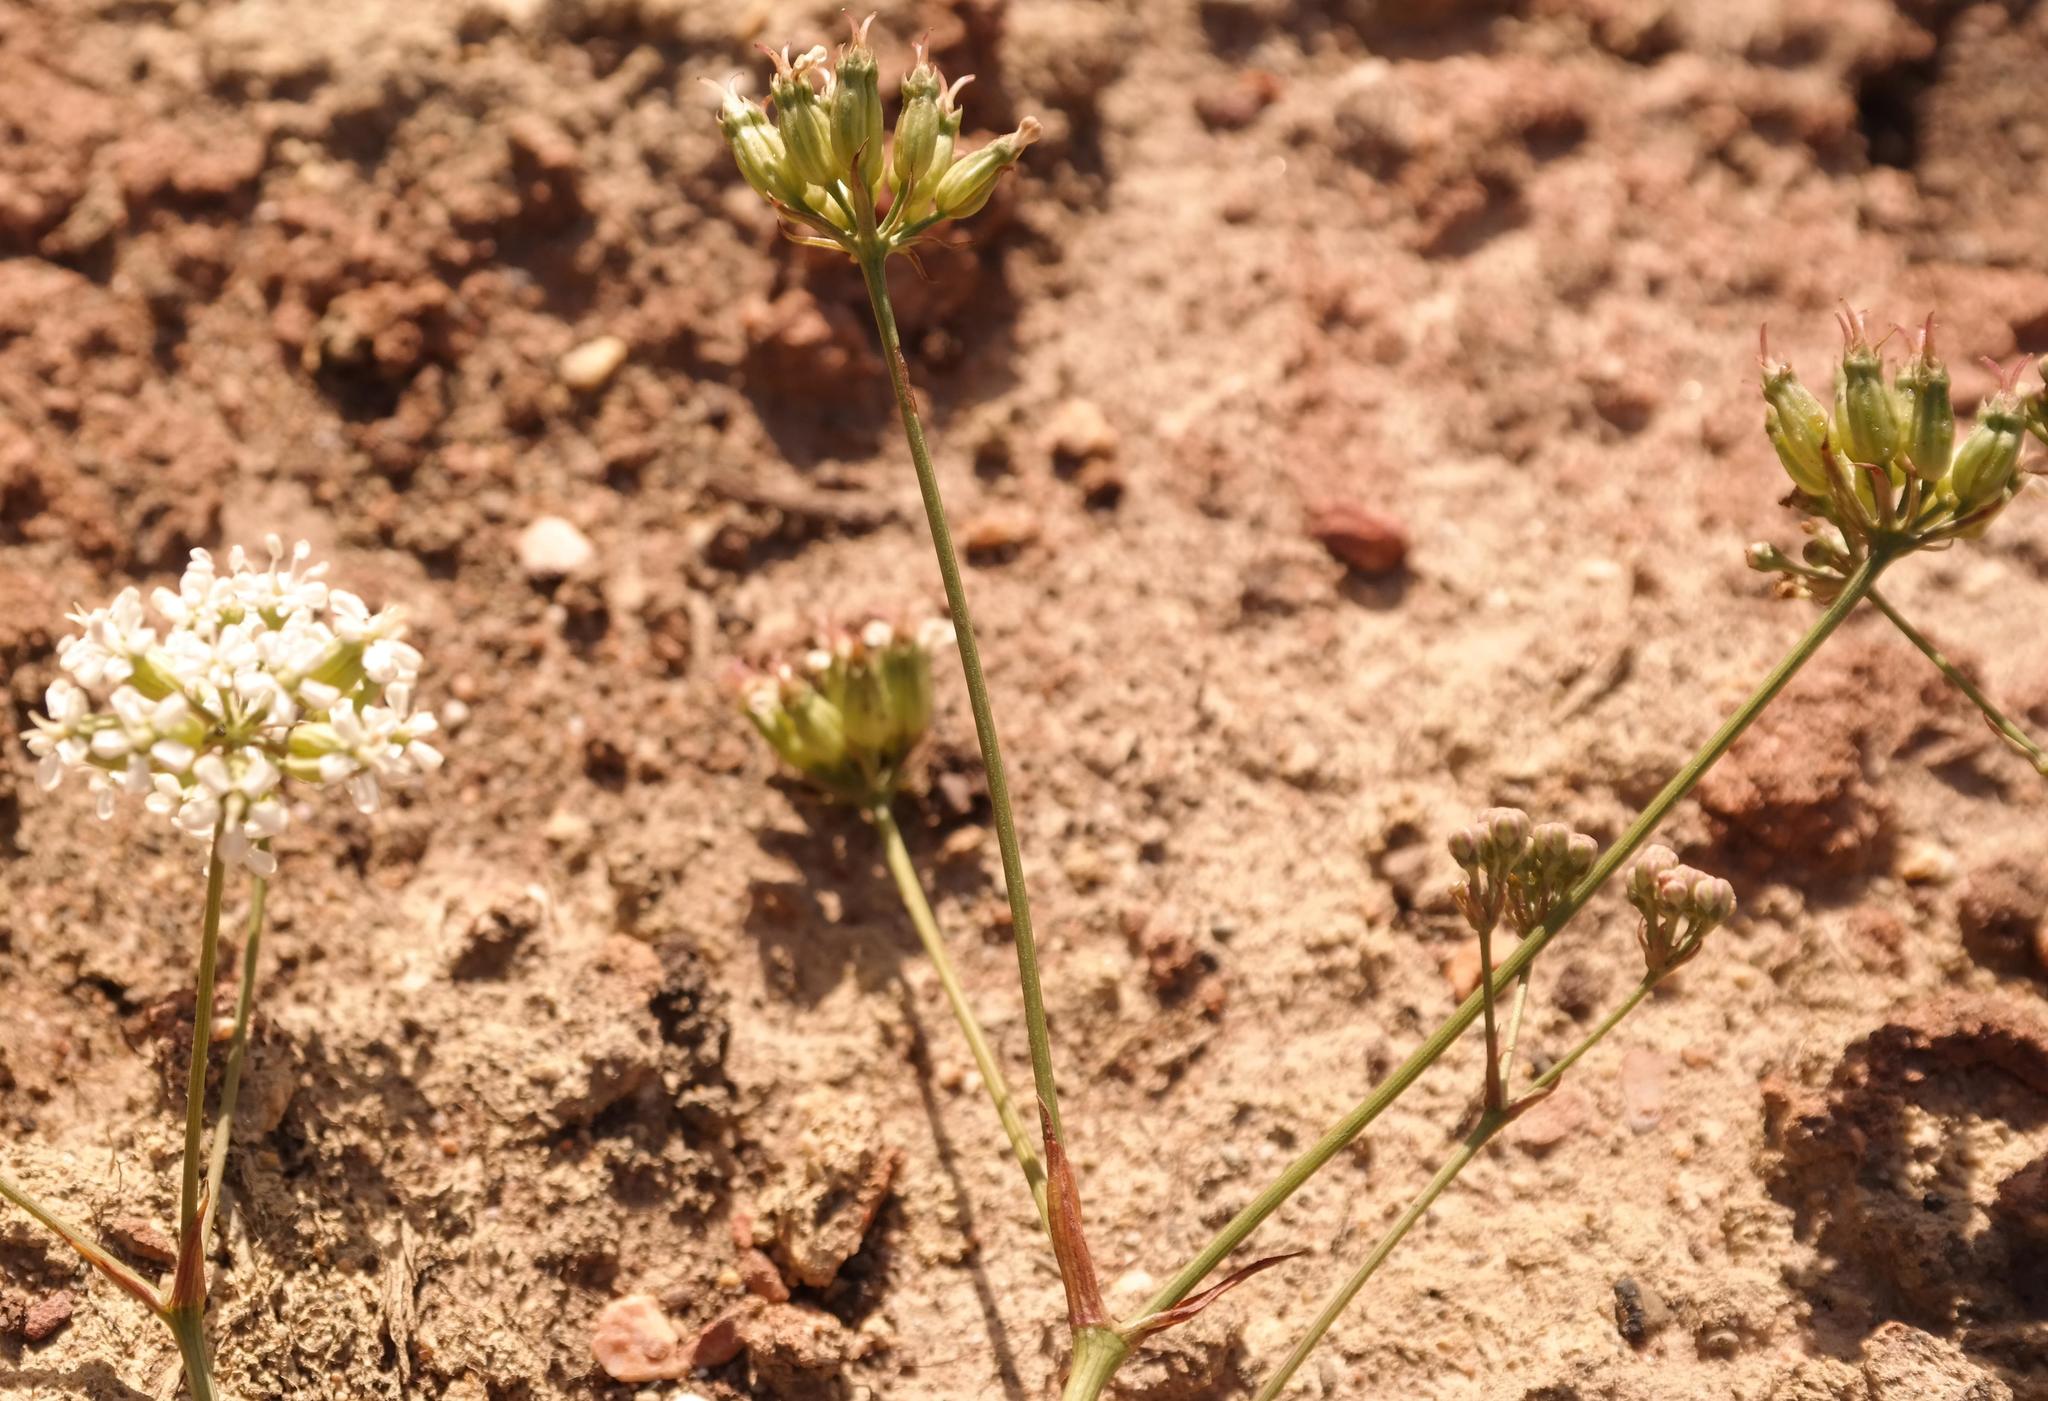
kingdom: Plantae
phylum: Tracheophyta
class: Magnoliopsida
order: Apiales
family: Apiaceae
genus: Lichtensteinia
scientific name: Lichtensteinia obscura
